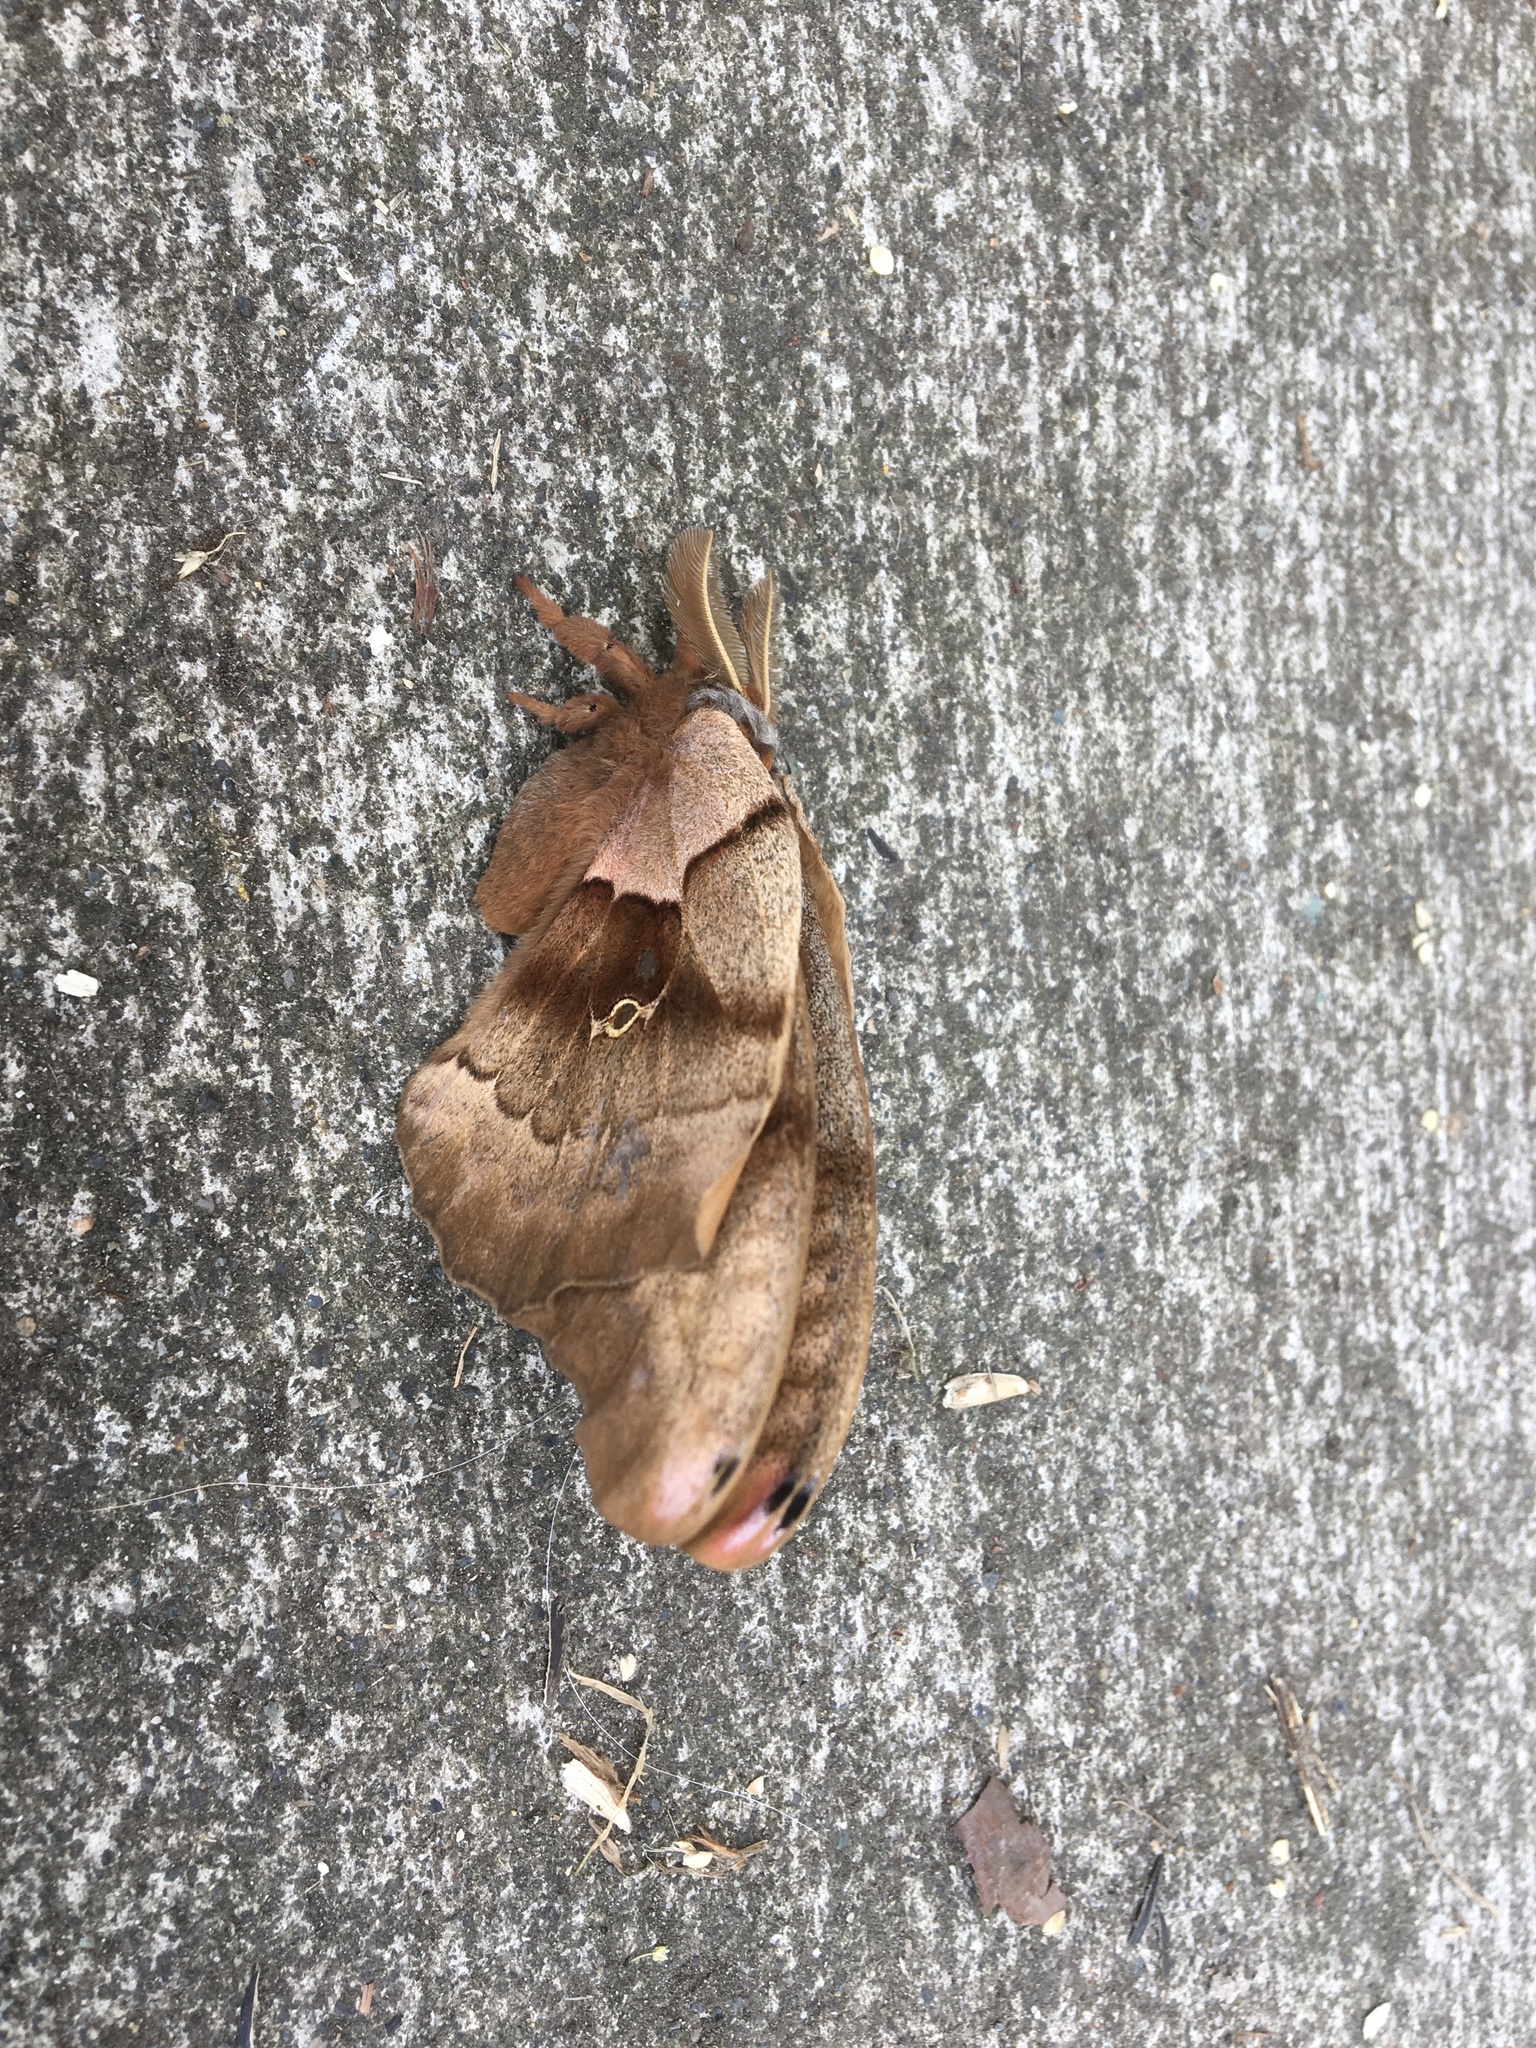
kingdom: Animalia
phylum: Arthropoda
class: Insecta
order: Lepidoptera
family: Saturniidae
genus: Antheraea
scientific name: Antheraea polyphemus
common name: Polyphemus moth
